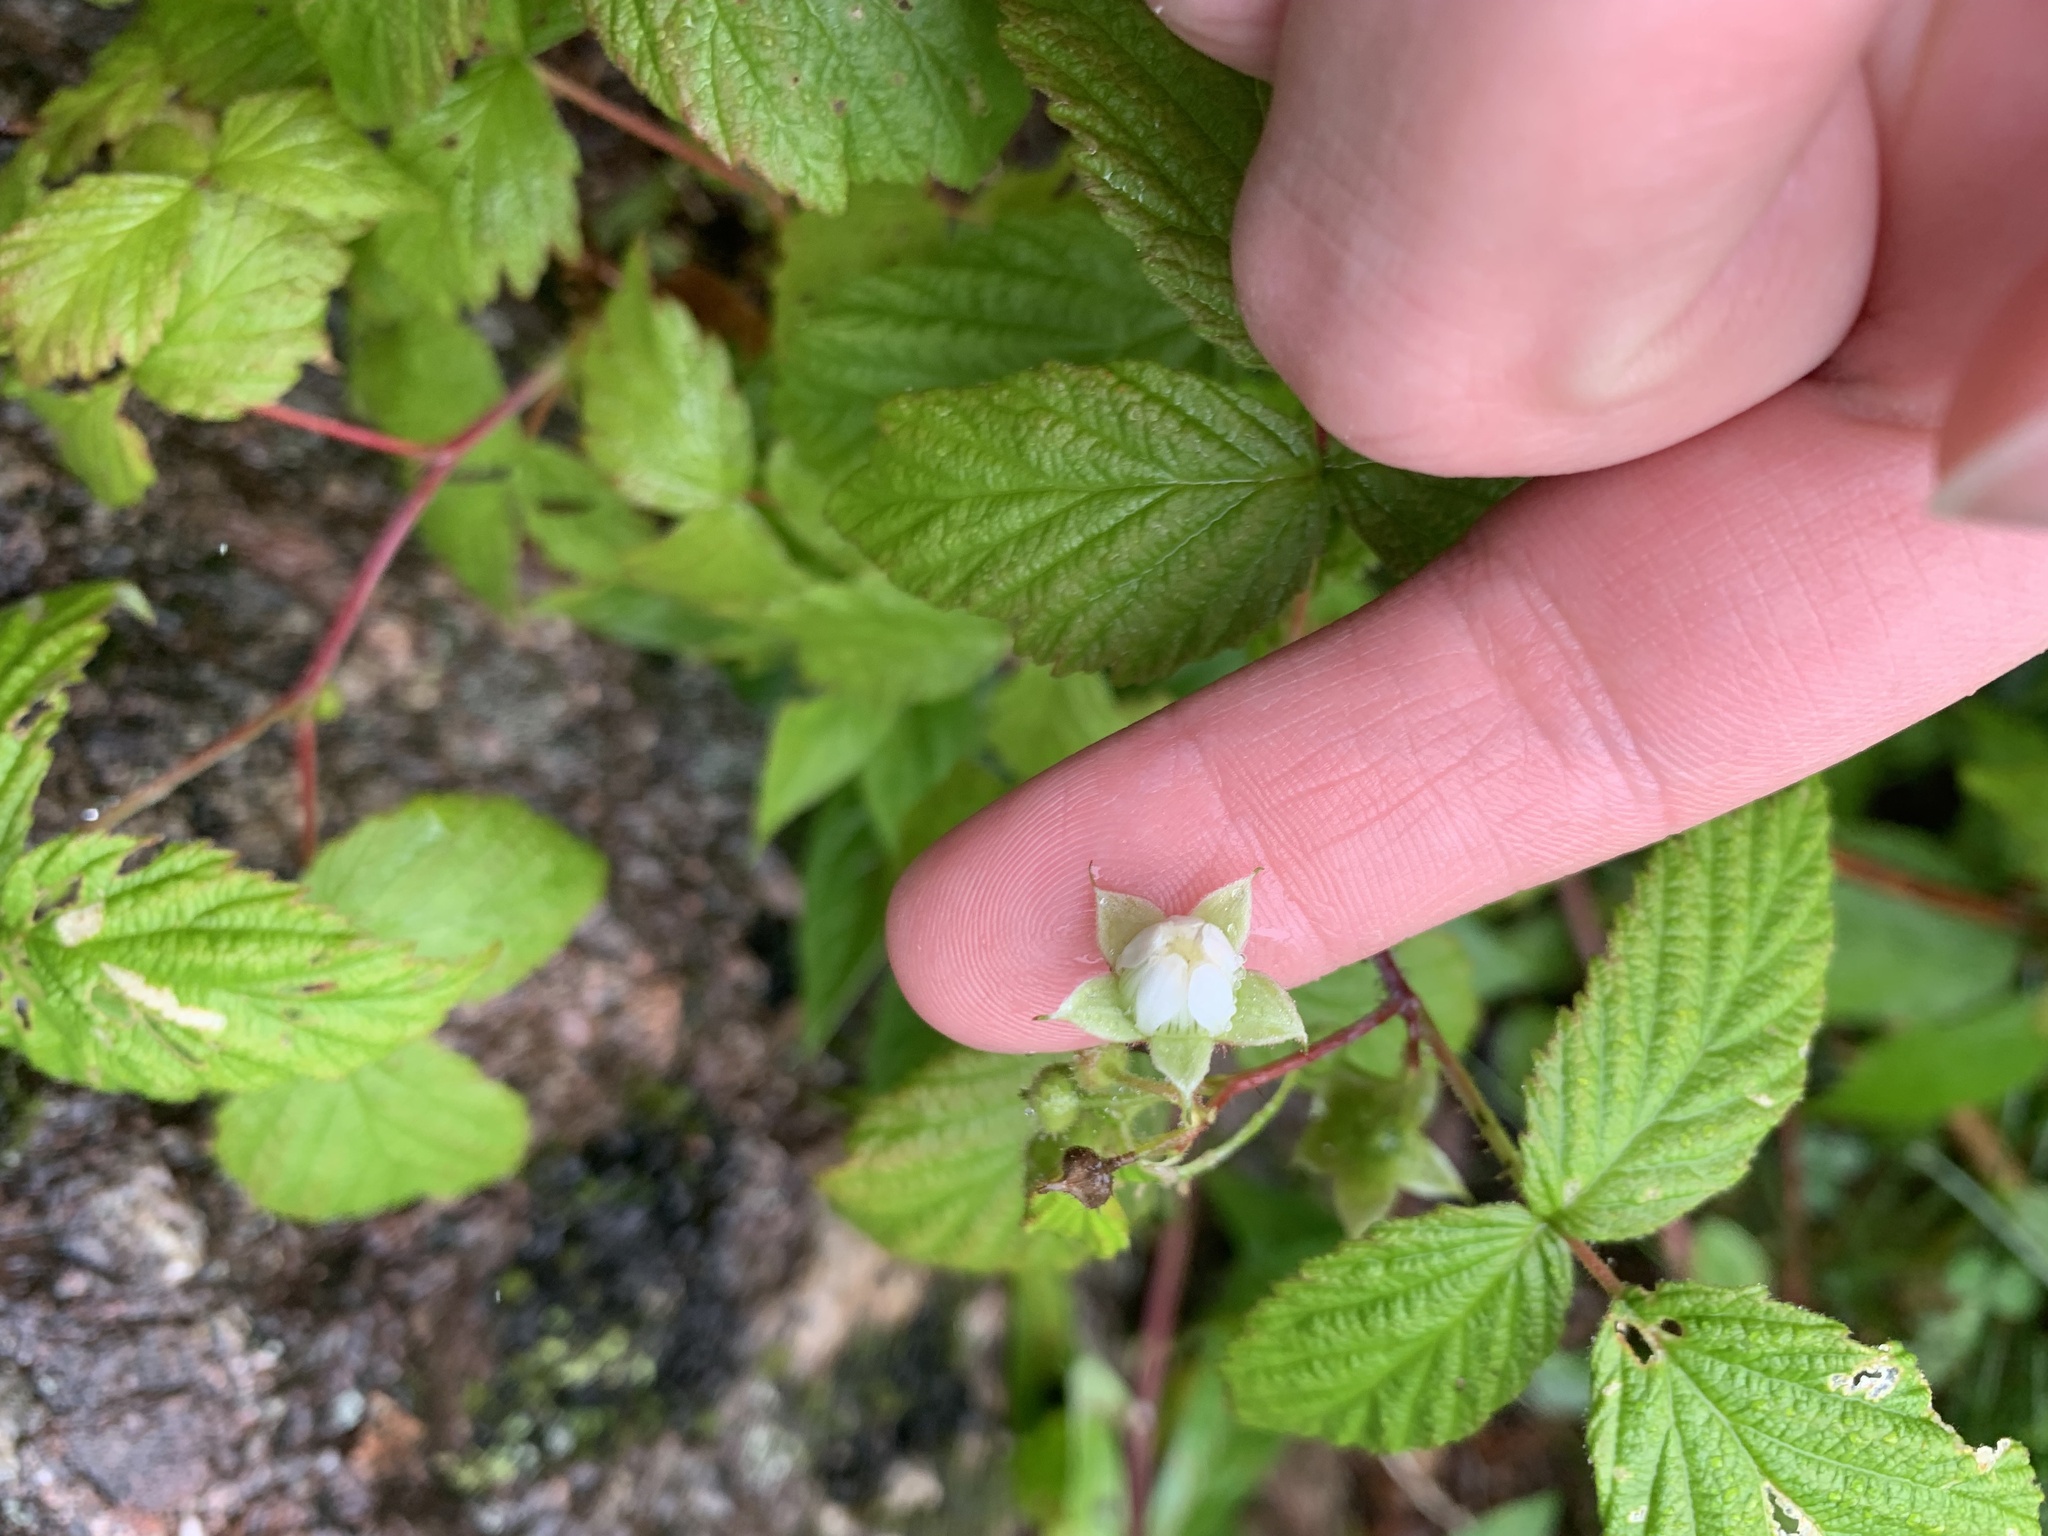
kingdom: Plantae
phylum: Tracheophyta
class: Magnoliopsida
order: Rosales
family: Rosaceae
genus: Rubus
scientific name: Rubus idaeus
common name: Raspberry
